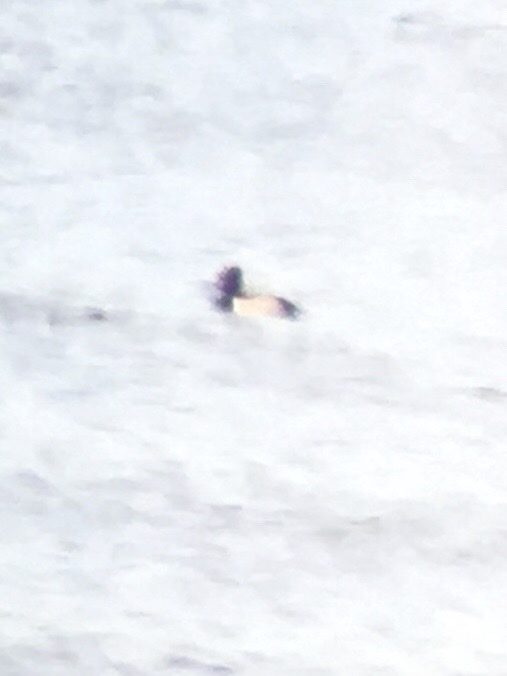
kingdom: Animalia
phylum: Chordata
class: Aves
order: Anseriformes
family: Anatidae
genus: Aythya
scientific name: Aythya collaris
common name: Ring-necked duck
